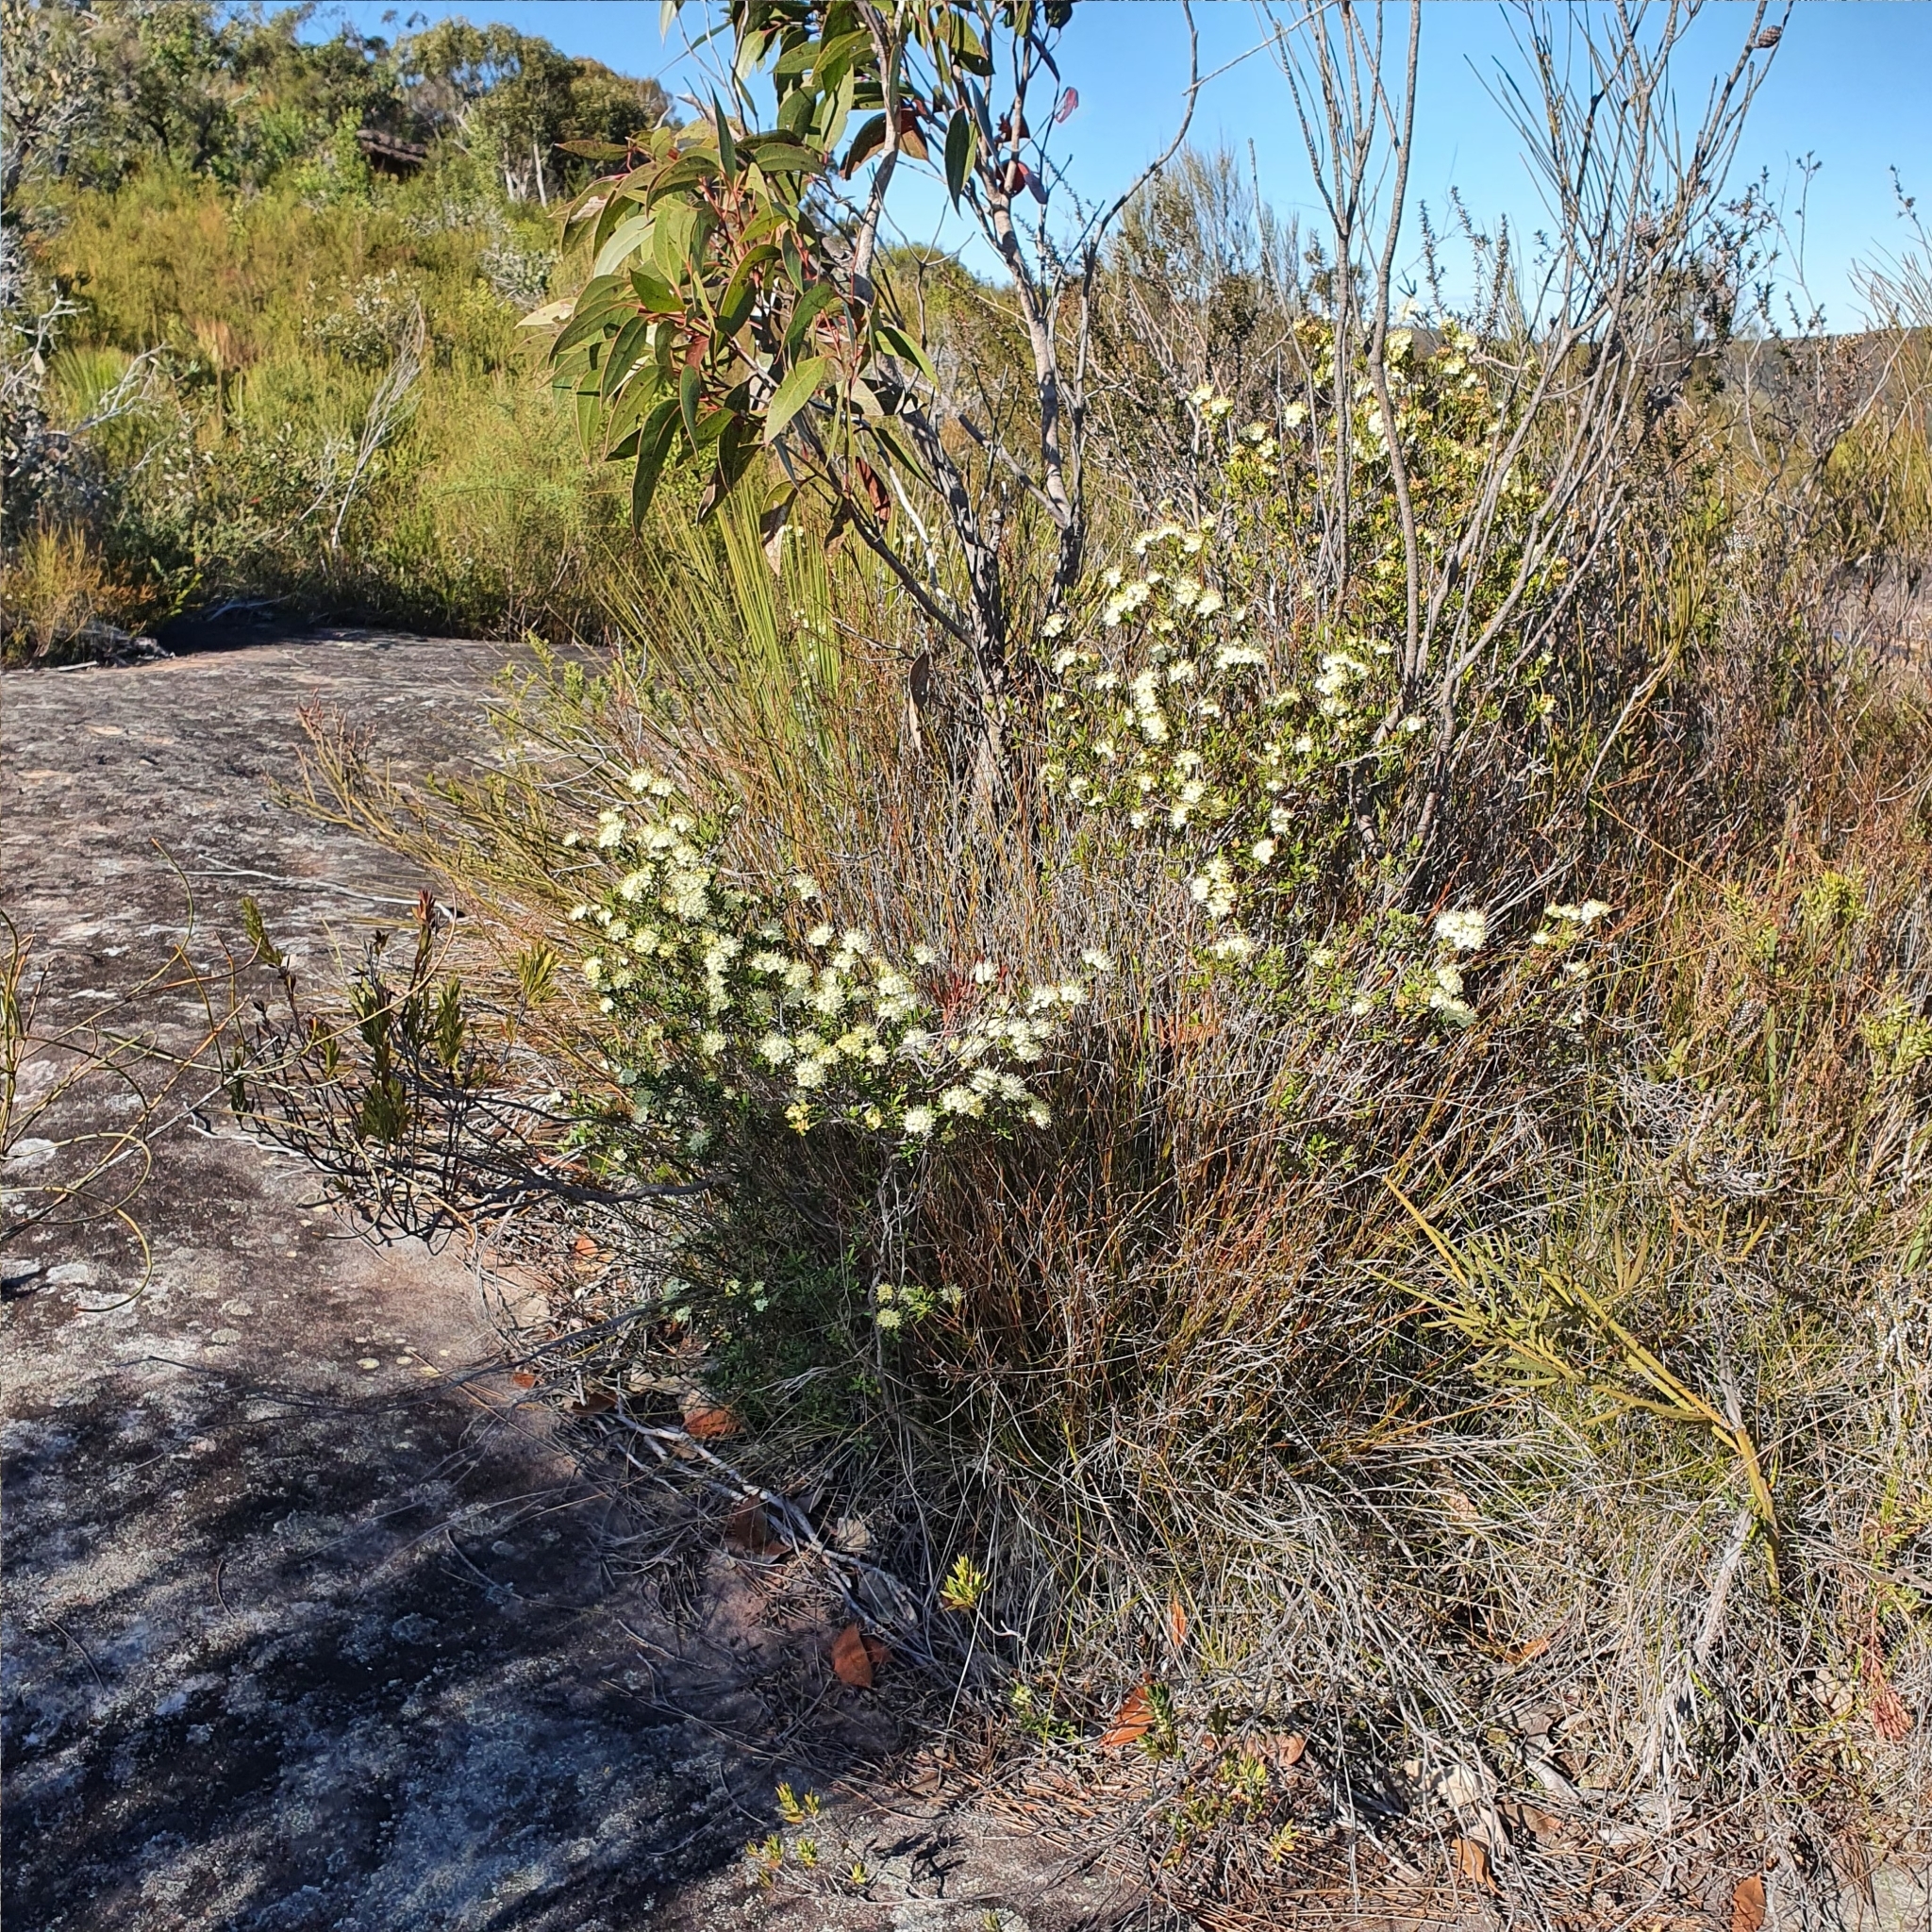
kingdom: Plantae
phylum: Tracheophyta
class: Magnoliopsida
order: Sapindales
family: Rutaceae
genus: Phebalium
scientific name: Phebalium squamulosum
